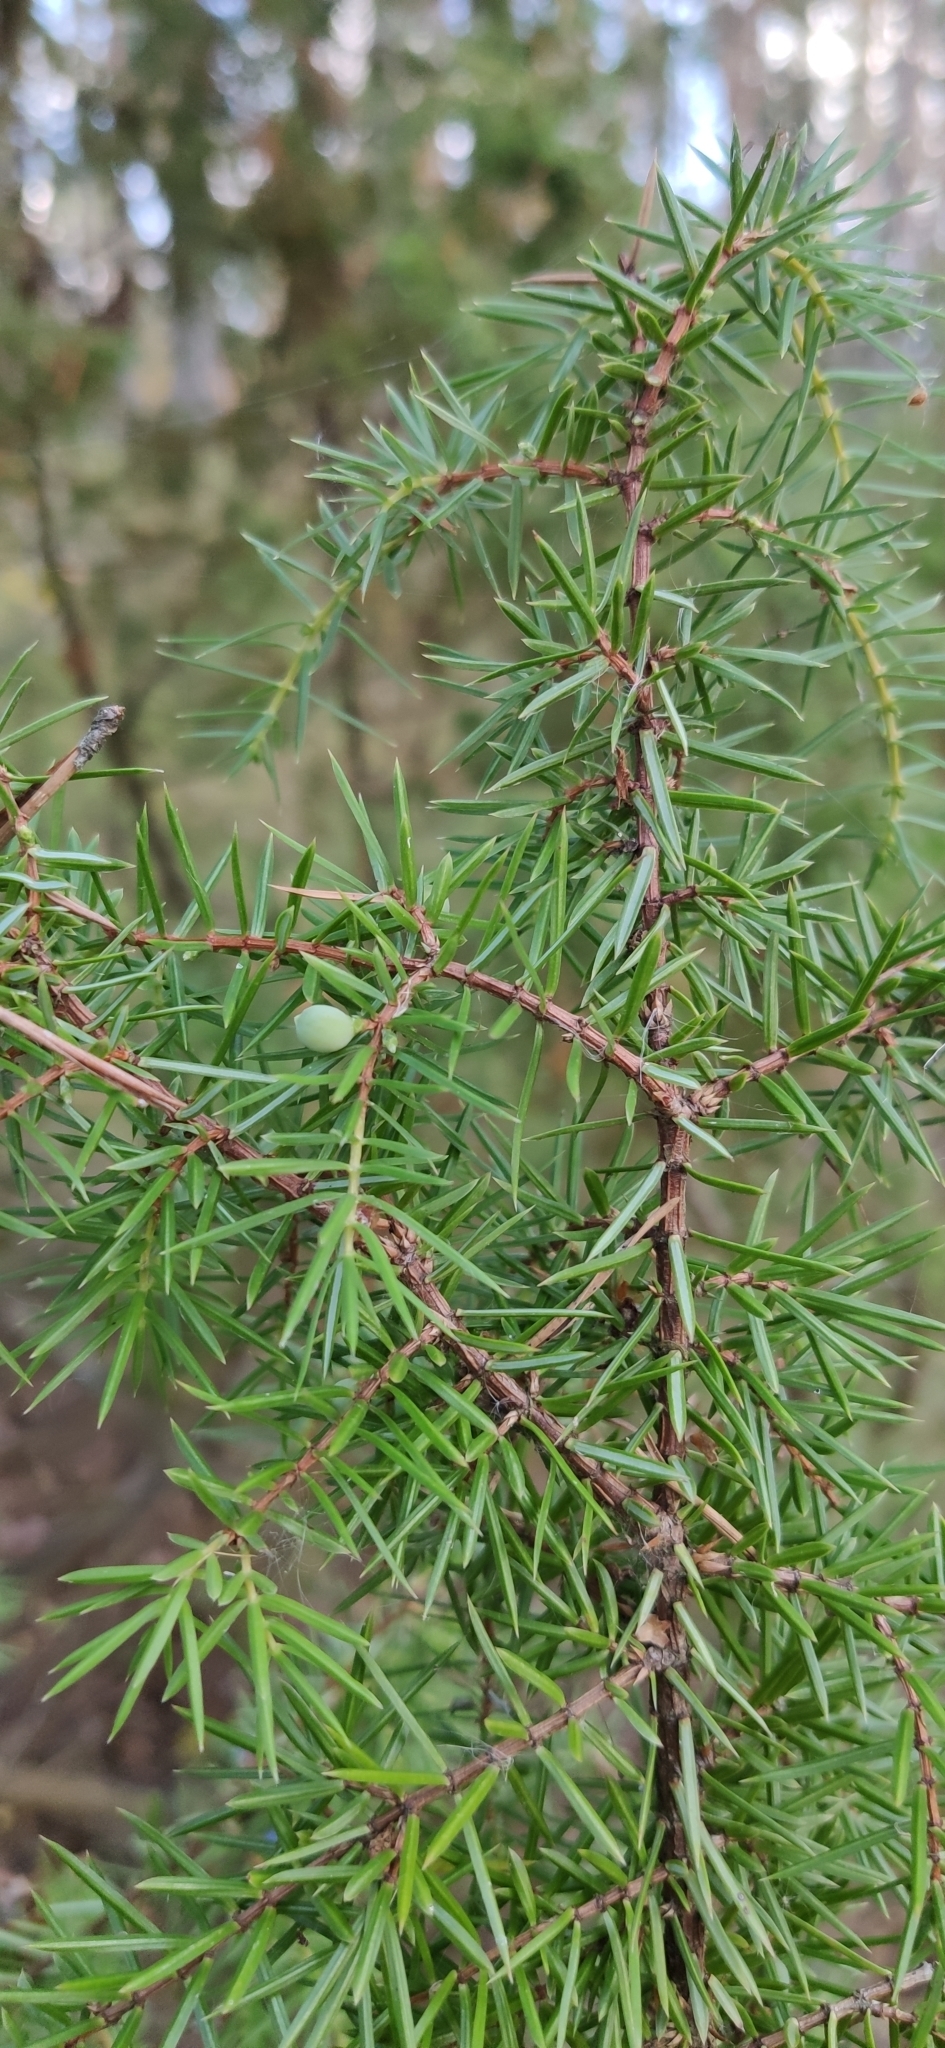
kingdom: Plantae
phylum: Tracheophyta
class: Pinopsida
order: Pinales
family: Cupressaceae
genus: Juniperus
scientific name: Juniperus communis
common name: Common juniper
